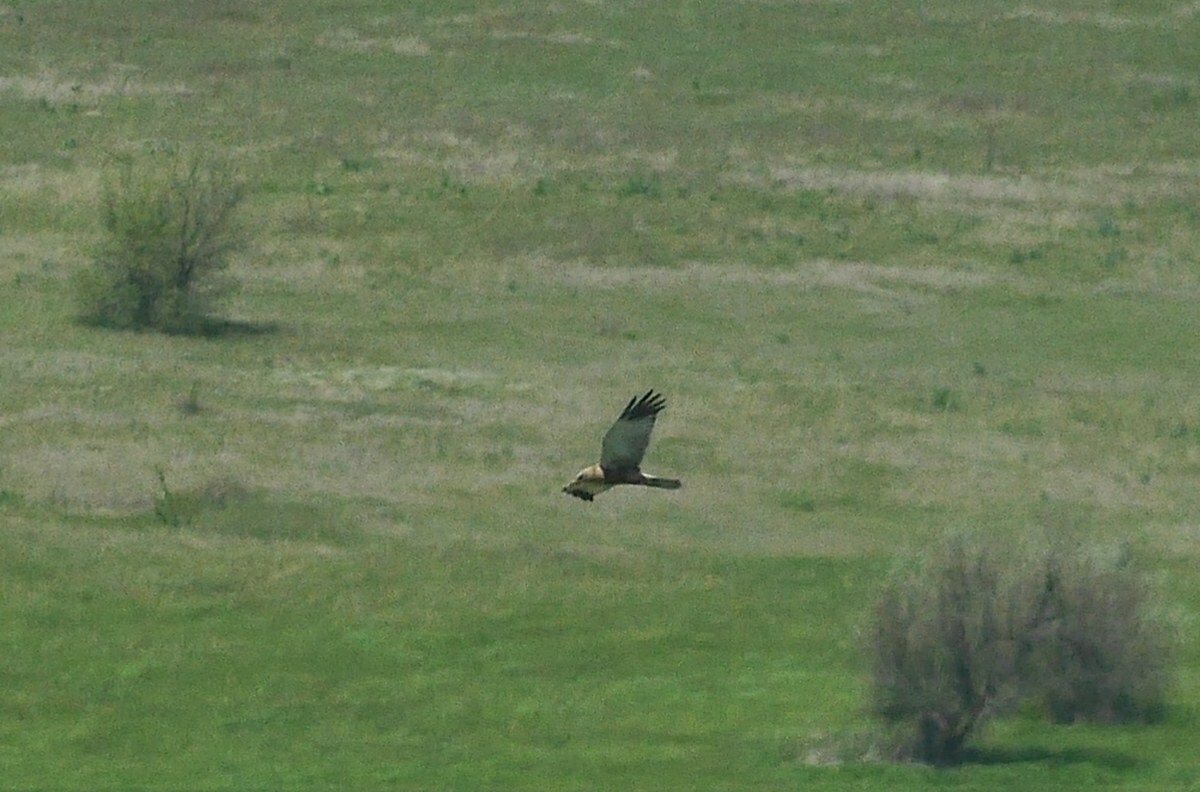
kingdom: Animalia
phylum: Chordata
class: Aves
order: Accipitriformes
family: Accipitridae
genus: Circus
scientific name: Circus aeruginosus
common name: Western marsh harrier
